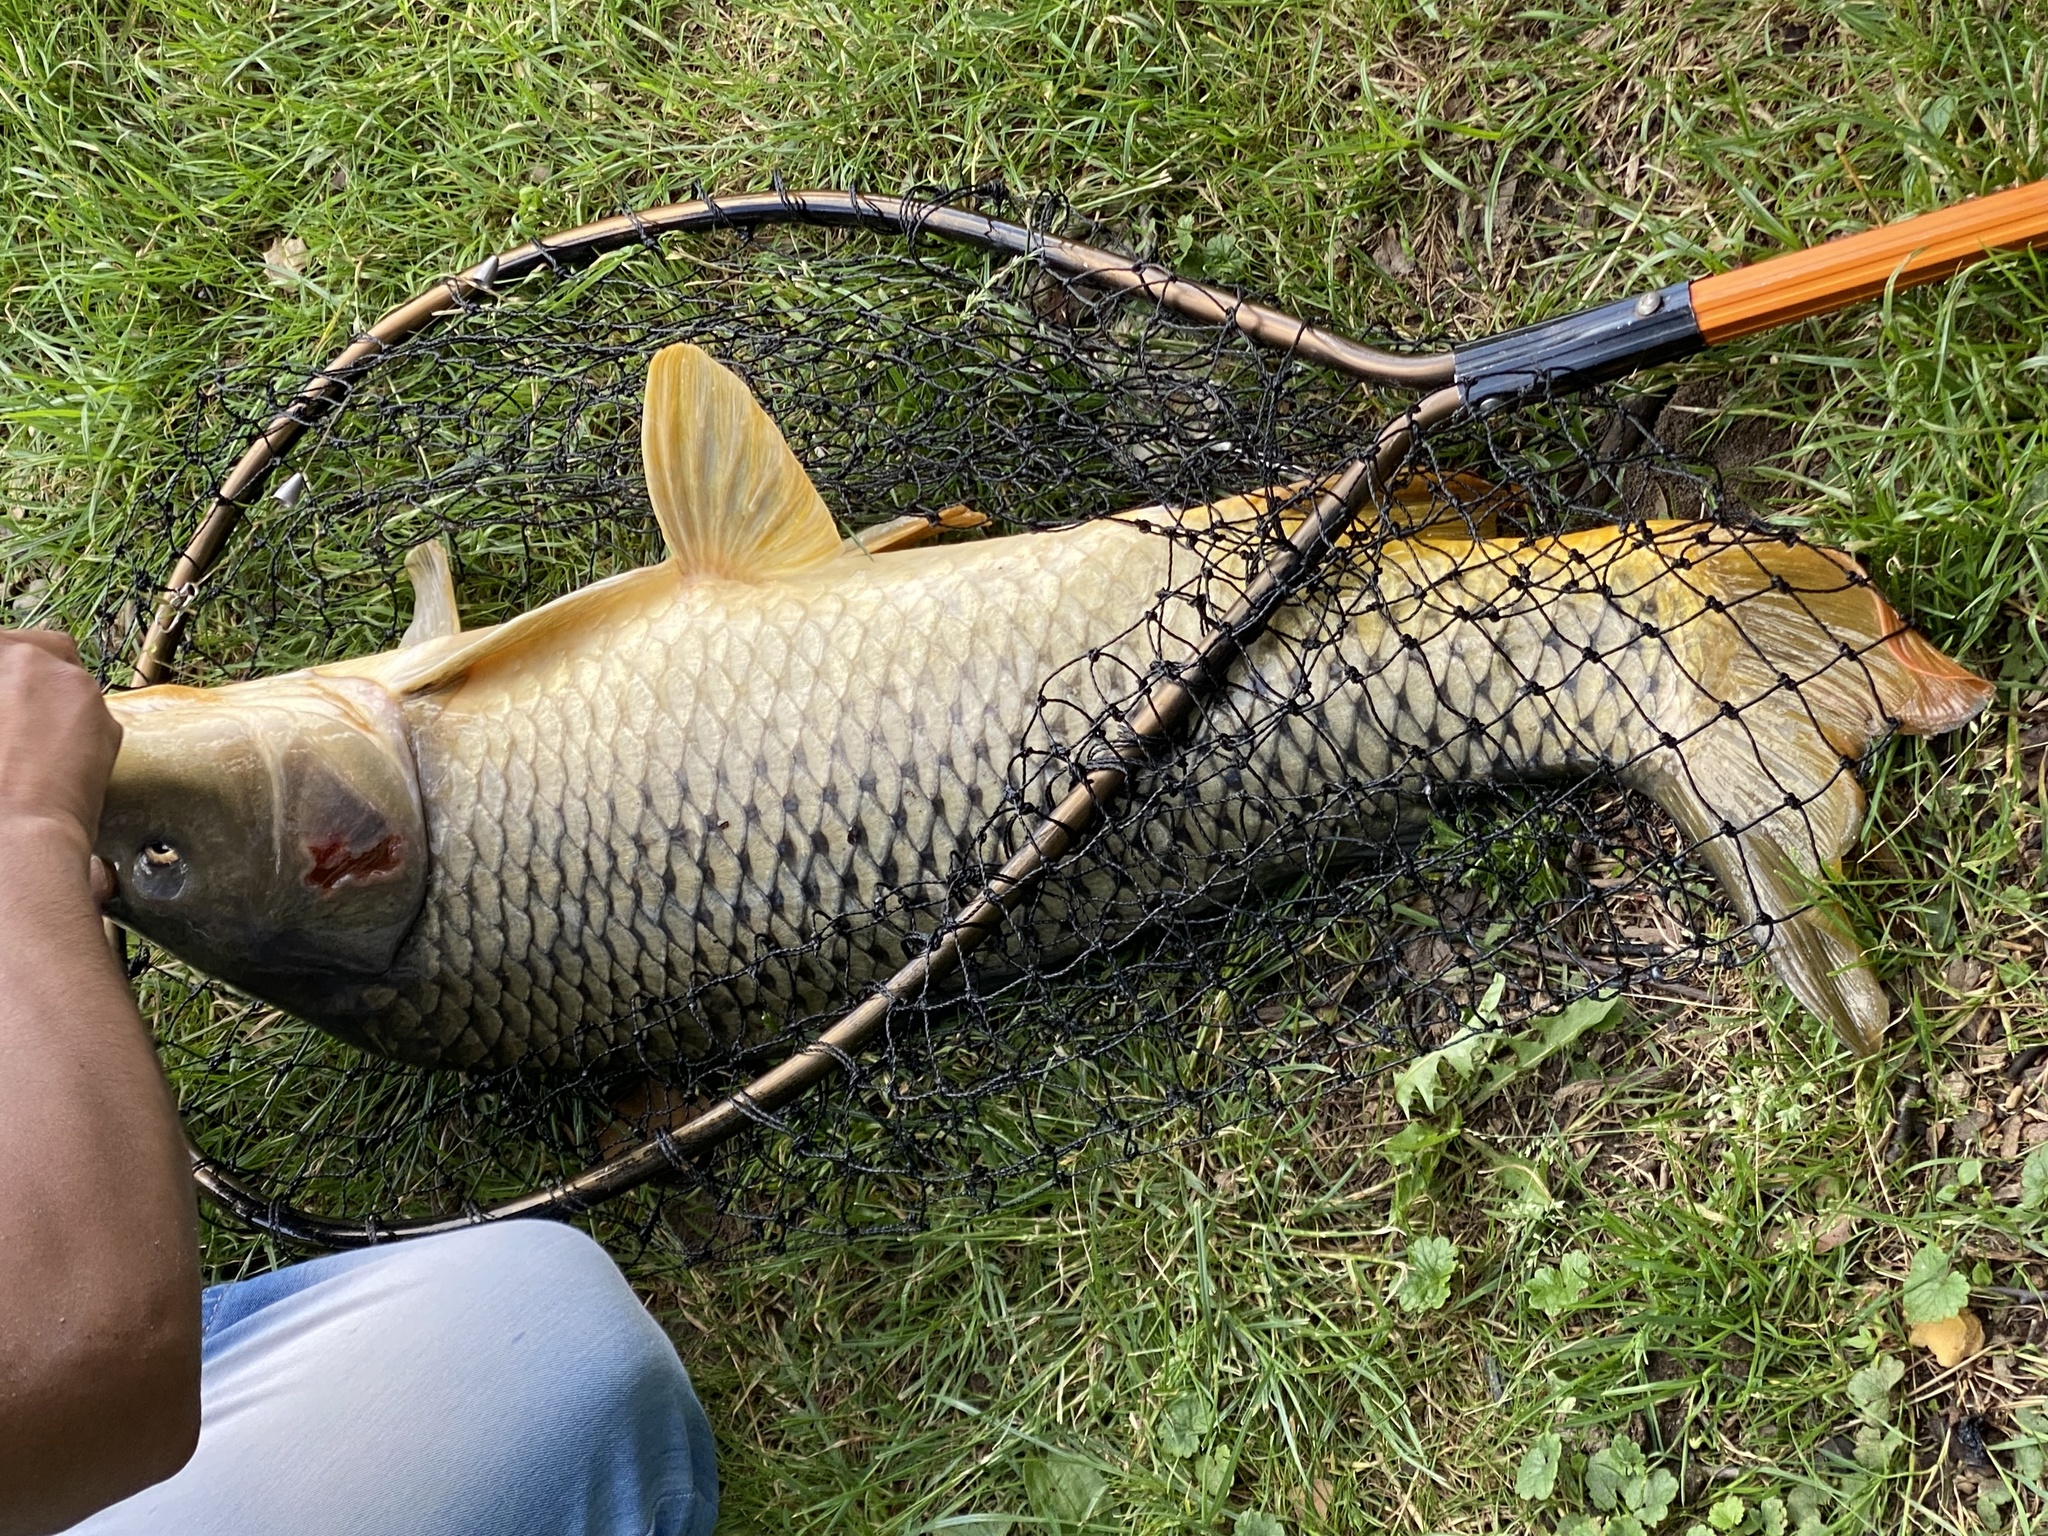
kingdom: Animalia
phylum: Chordata
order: Cypriniformes
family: Cyprinidae
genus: Cyprinus
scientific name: Cyprinus carpio
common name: Common carp
